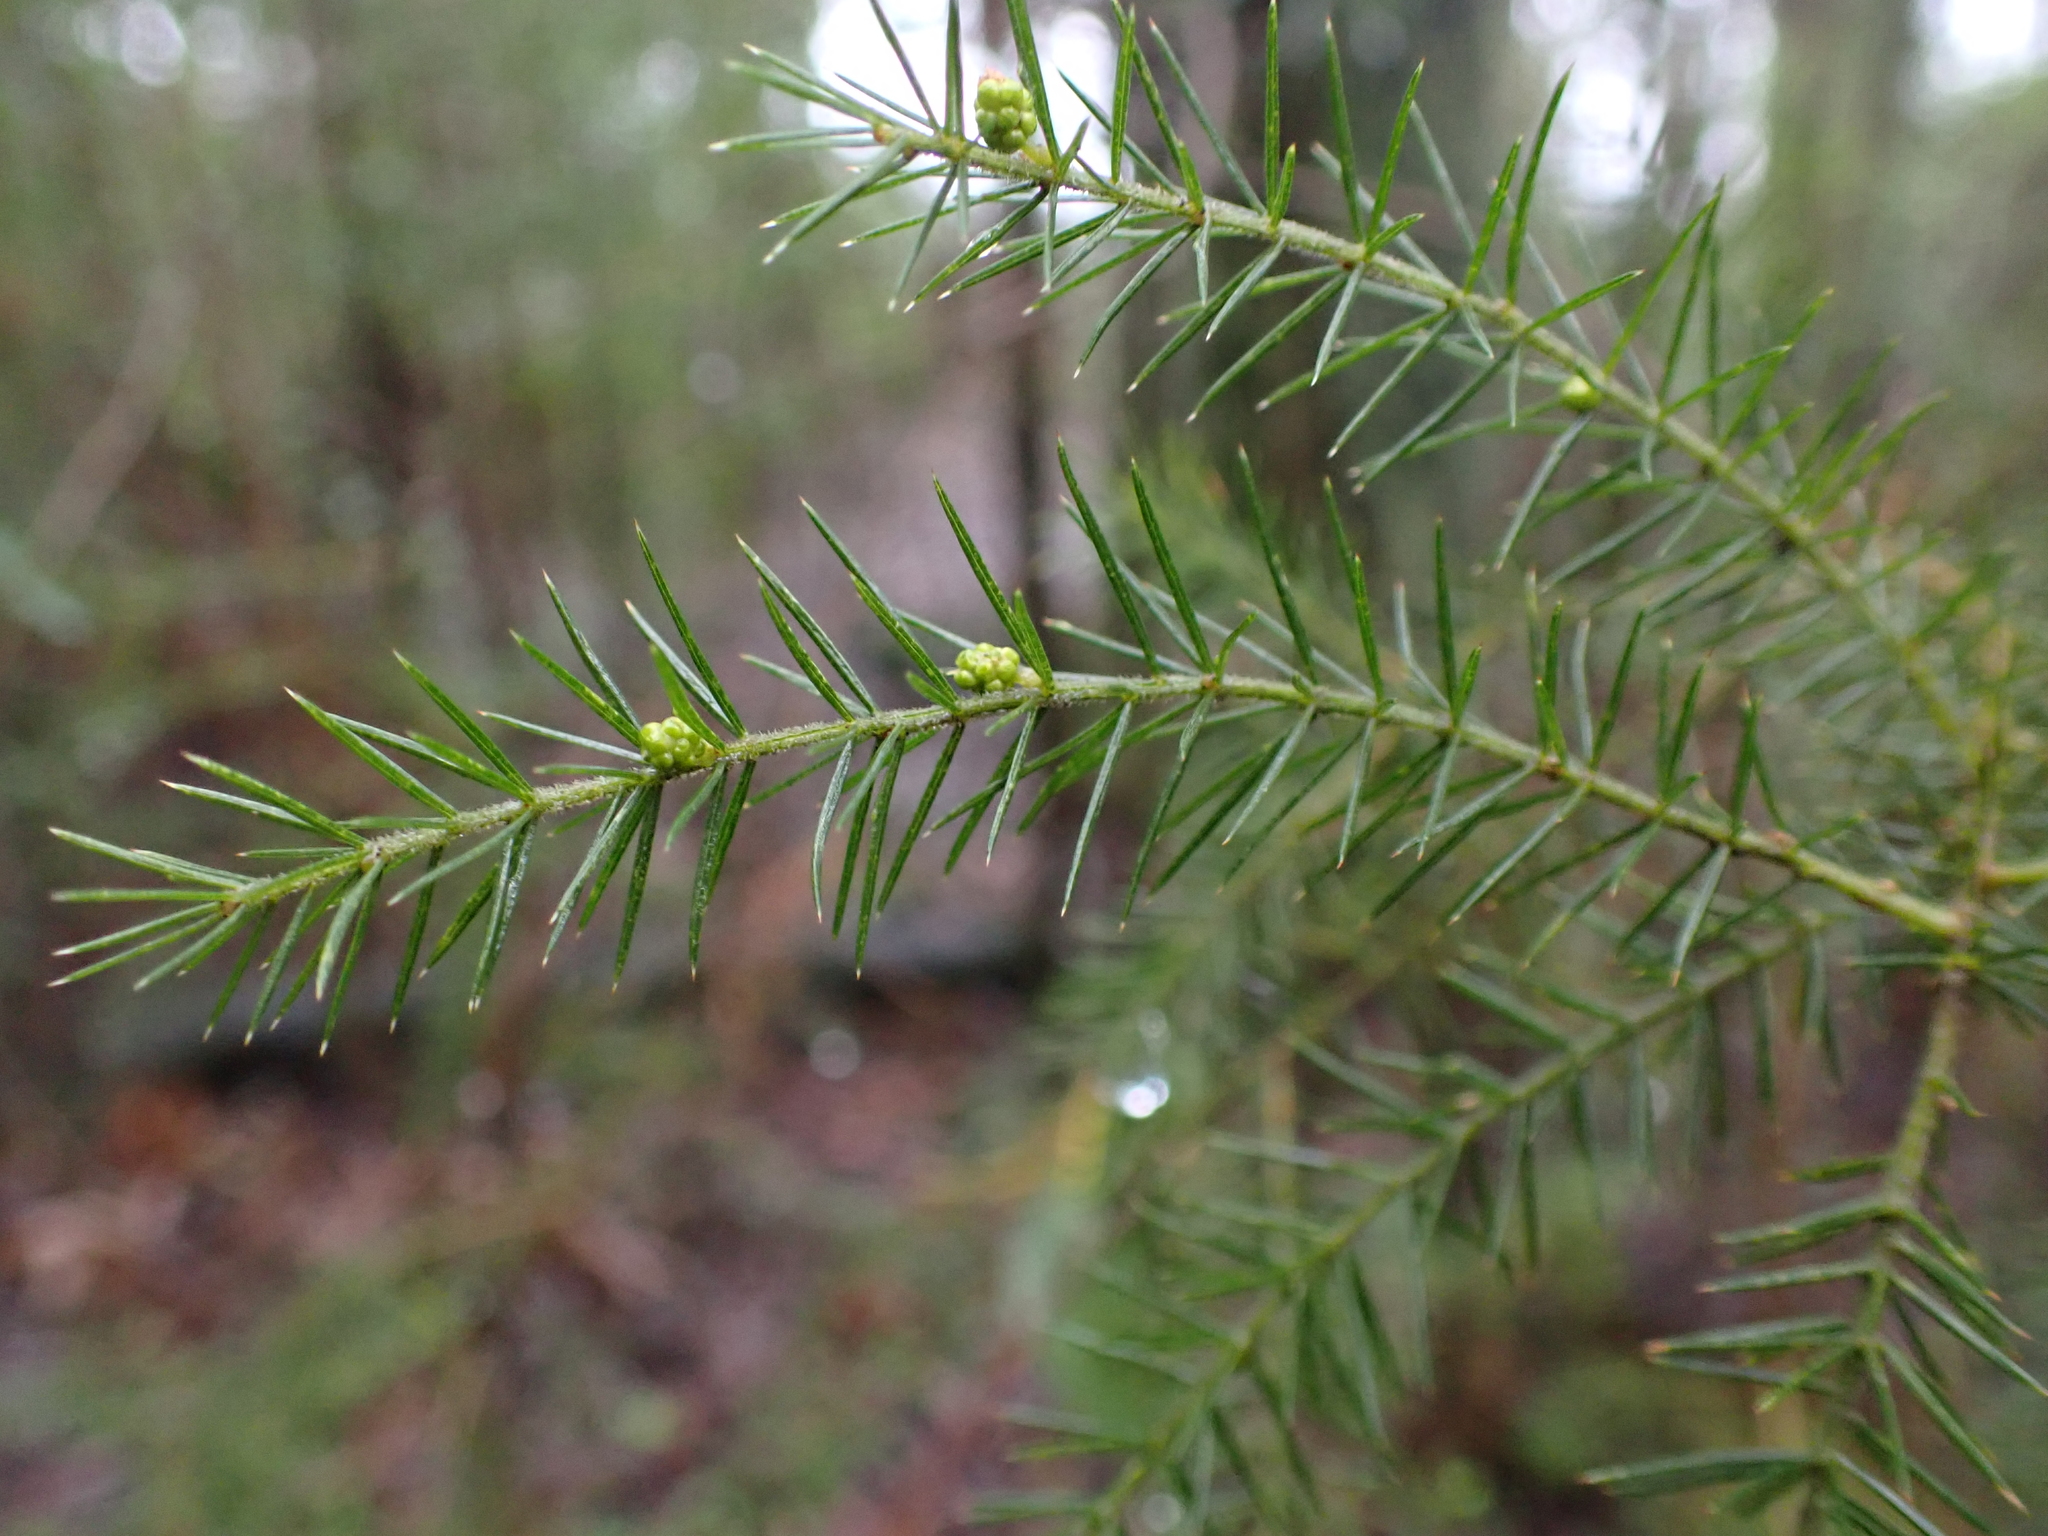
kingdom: Plantae
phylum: Tracheophyta
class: Magnoliopsida
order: Fabales
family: Fabaceae
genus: Acacia
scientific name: Acacia verticillata
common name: Prickly moses
